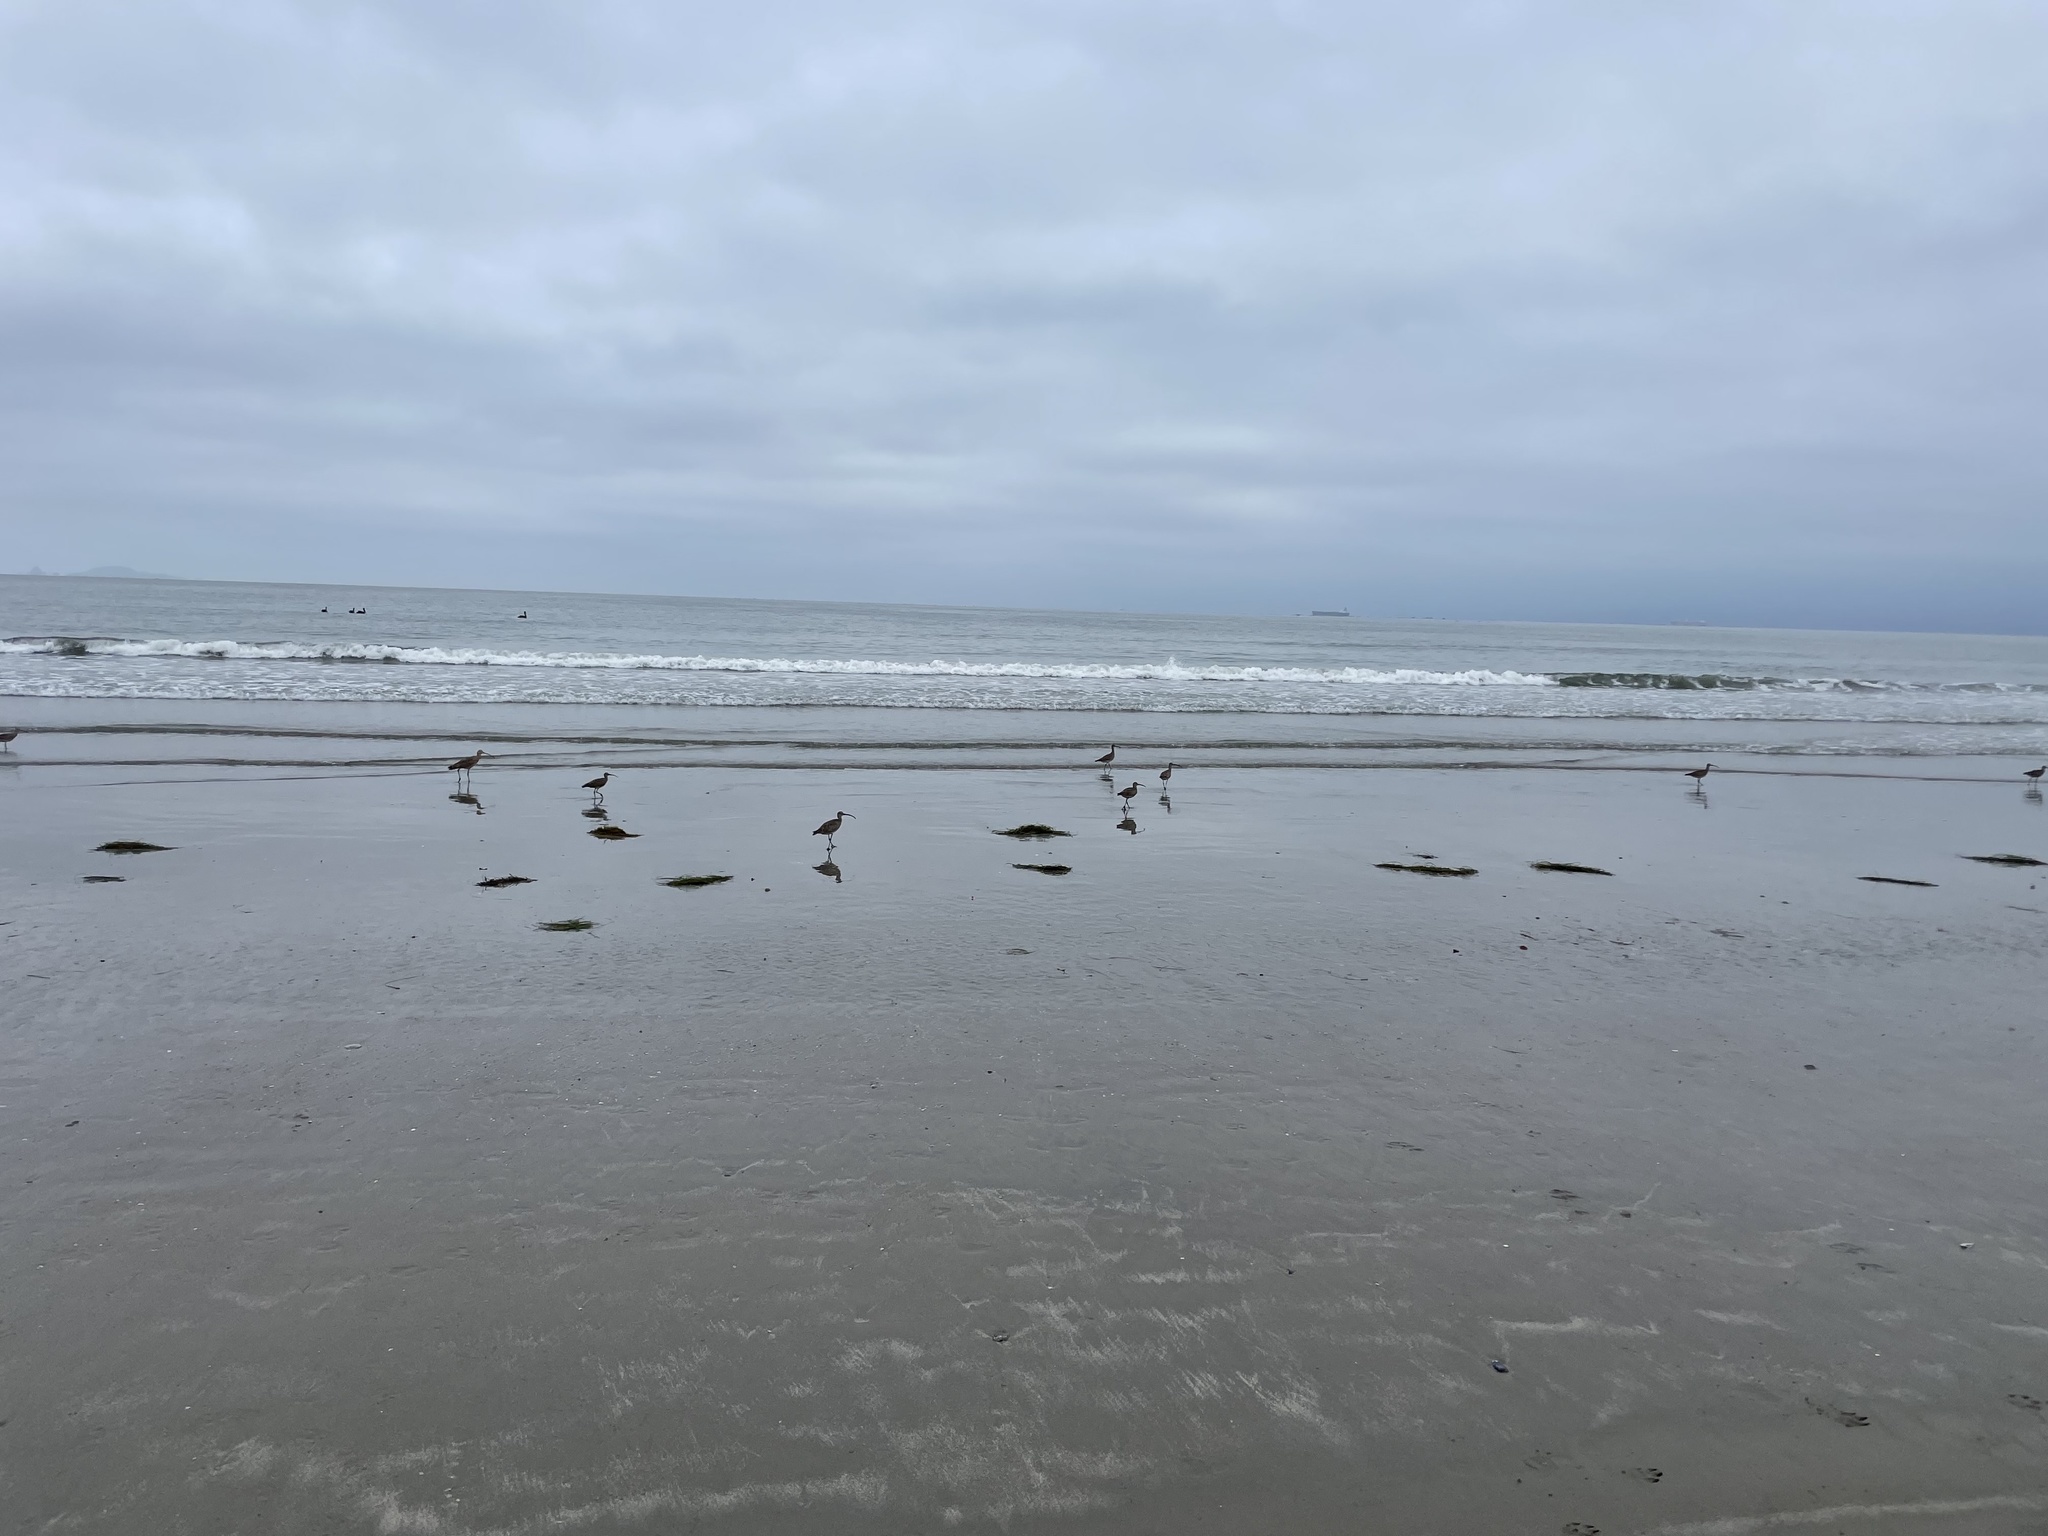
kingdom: Animalia
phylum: Chordata
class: Aves
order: Charadriiformes
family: Scolopacidae
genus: Numenius
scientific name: Numenius americanus
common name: Long-billed curlew
